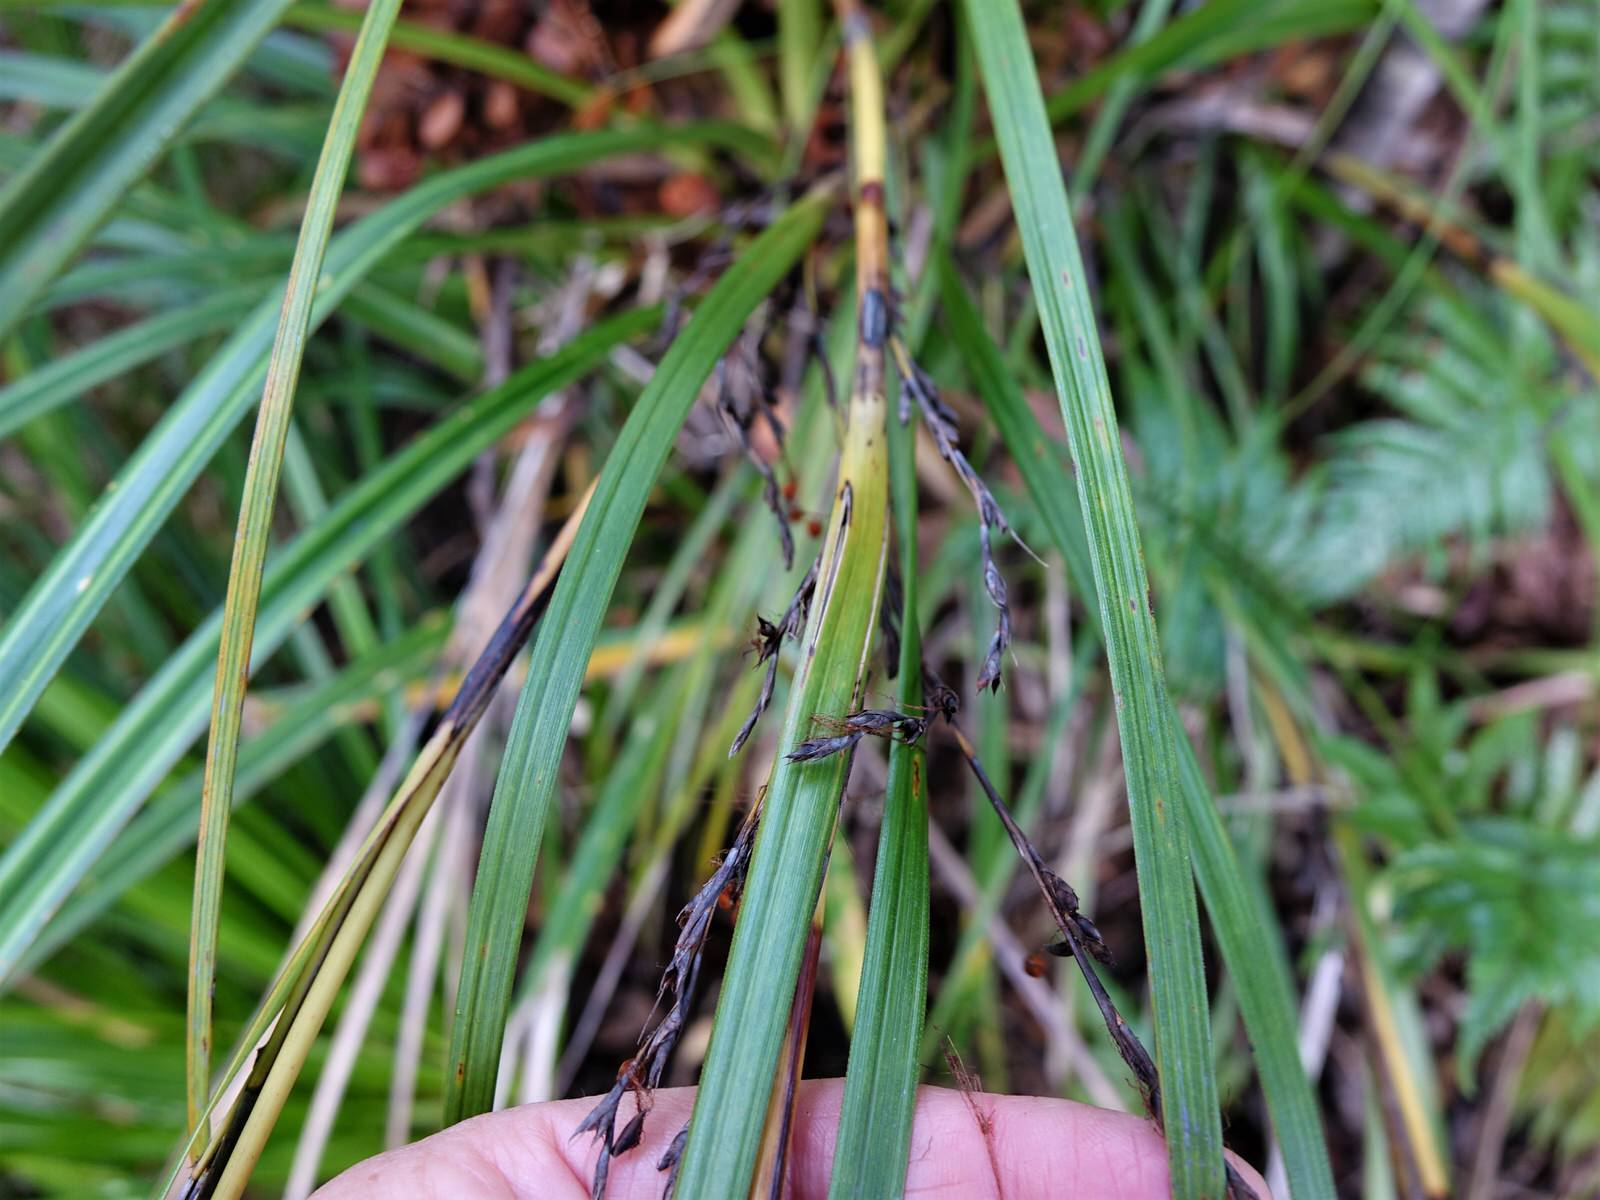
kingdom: Plantae
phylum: Tracheophyta
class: Liliopsida
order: Poales
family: Cyperaceae
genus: Gahnia
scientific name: Gahnia pauciflora
